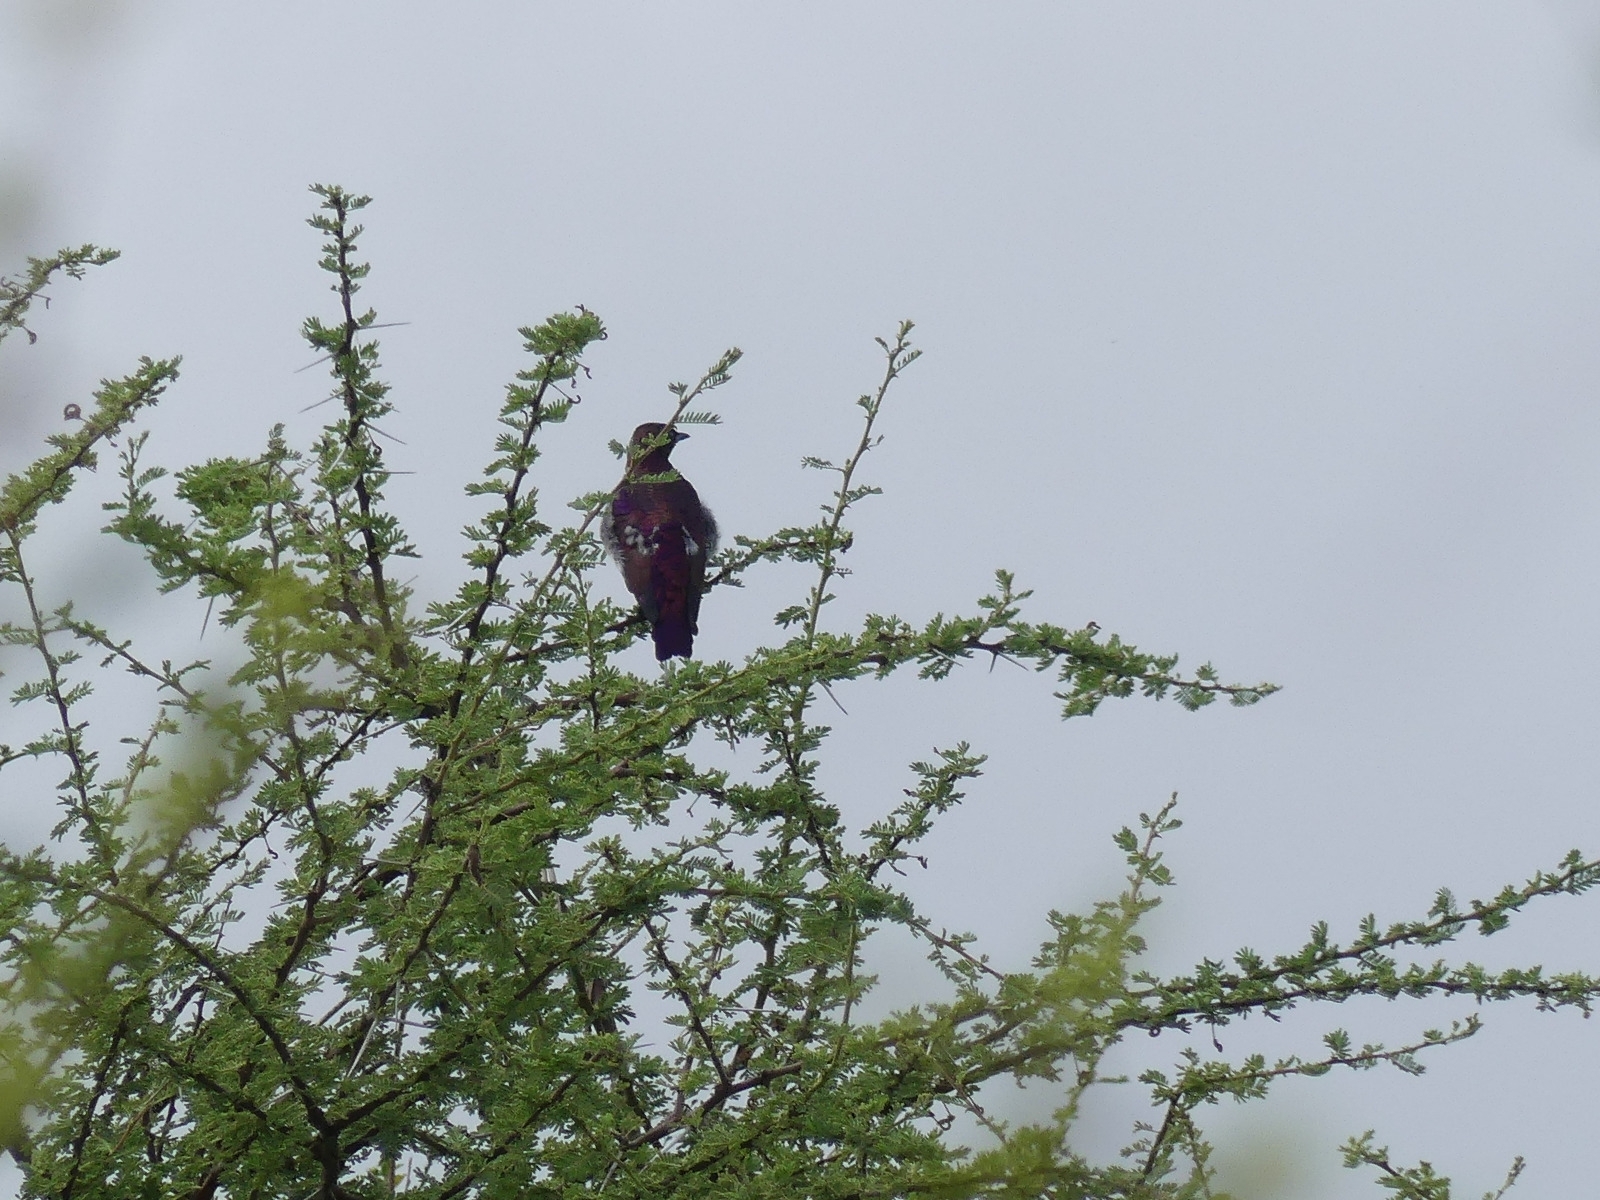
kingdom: Animalia
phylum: Chordata
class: Aves
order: Passeriformes
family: Sturnidae
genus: Cinnyricinclus
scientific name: Cinnyricinclus leucogaster
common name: Violet-backed starling
